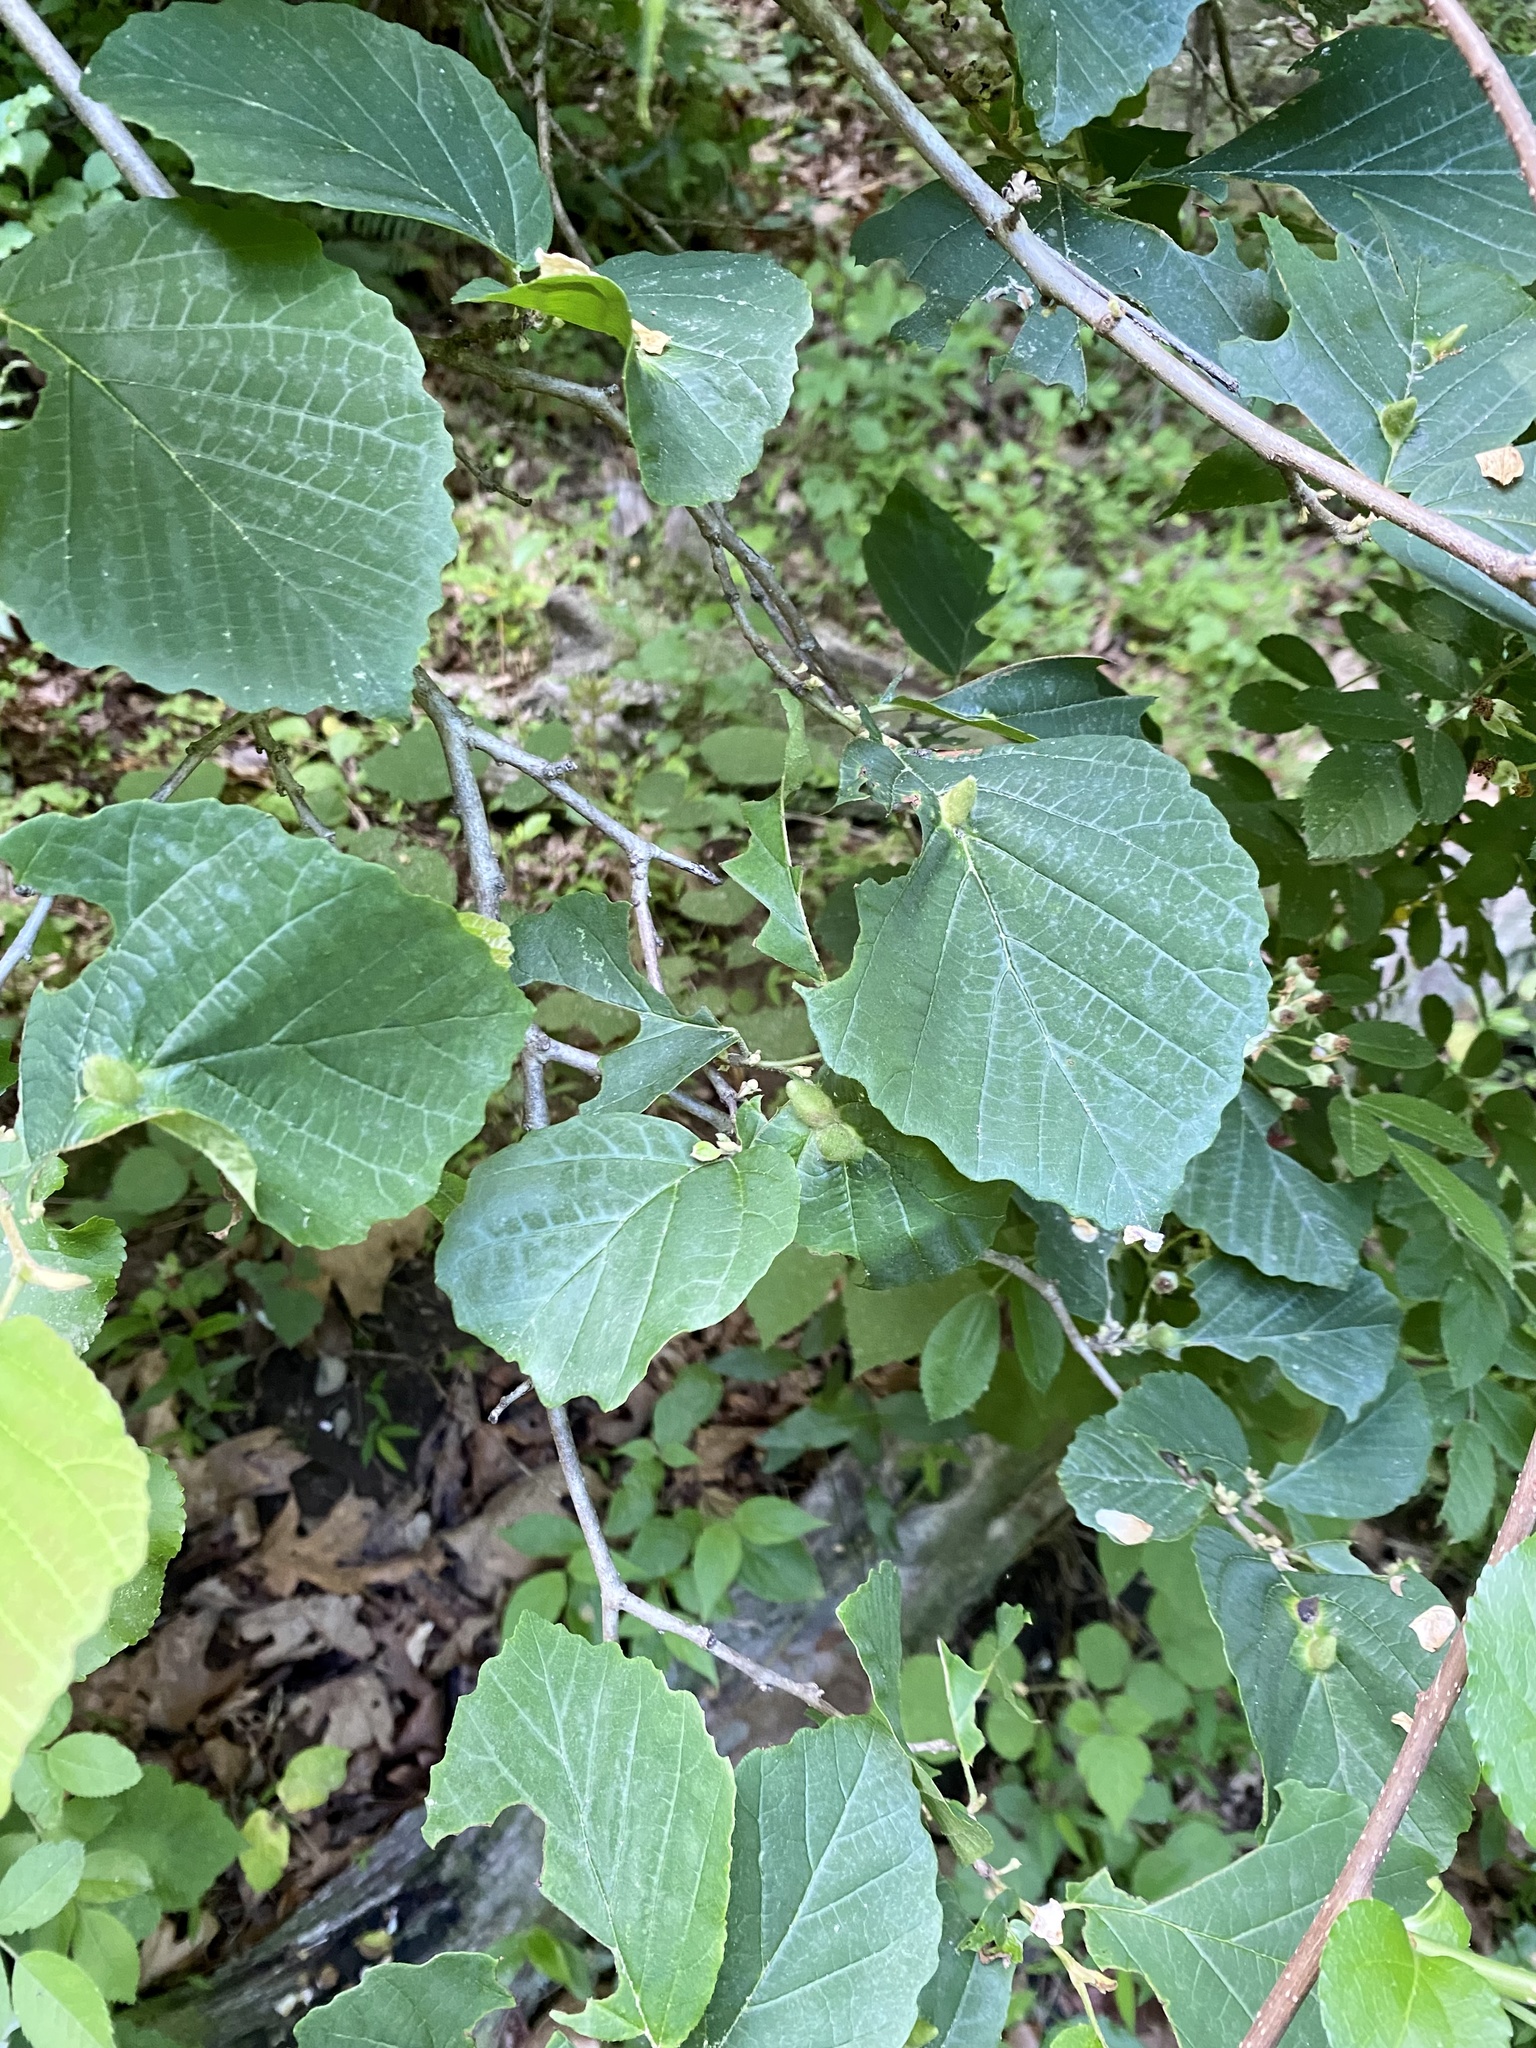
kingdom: Animalia
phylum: Arthropoda
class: Insecta
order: Hemiptera
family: Aphididae
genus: Hormaphis
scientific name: Hormaphis hamamelidis
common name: Witch-hazel cone gall aphid
